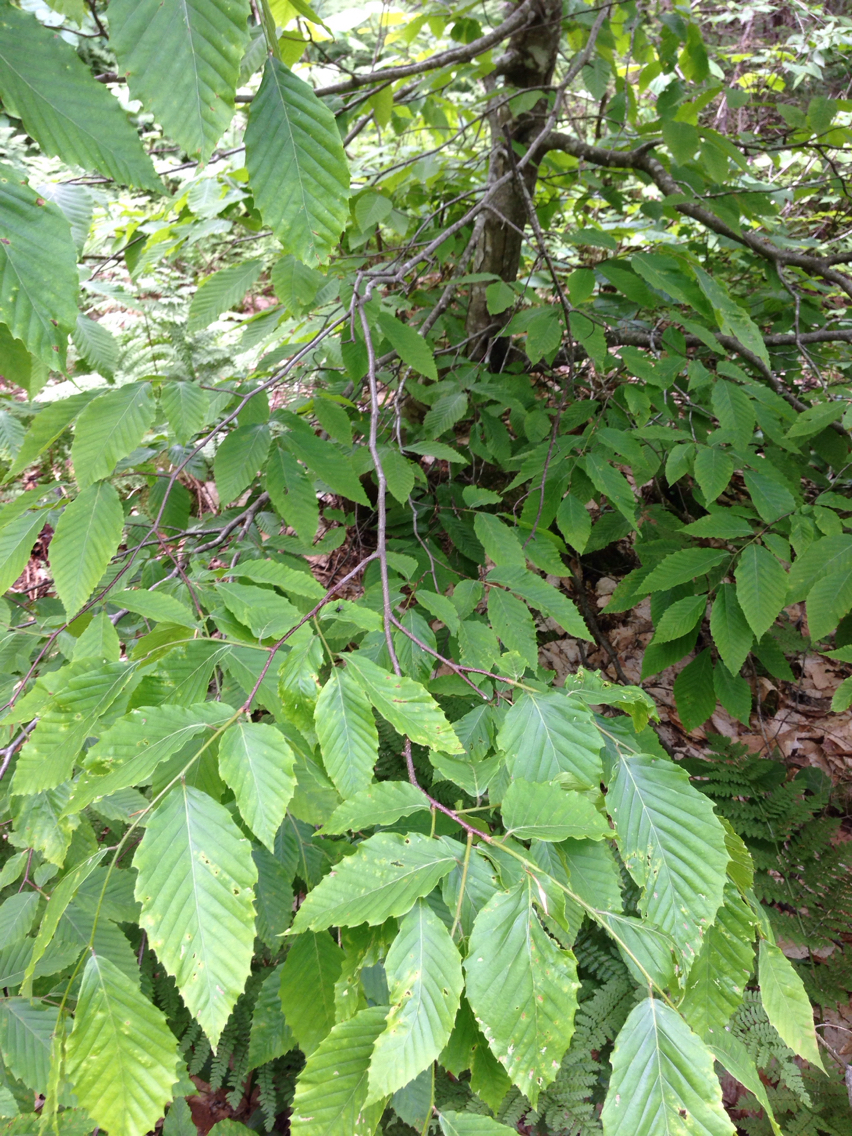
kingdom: Plantae
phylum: Tracheophyta
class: Magnoliopsida
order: Fagales
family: Fagaceae
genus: Fagus
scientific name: Fagus grandifolia
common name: American beech
